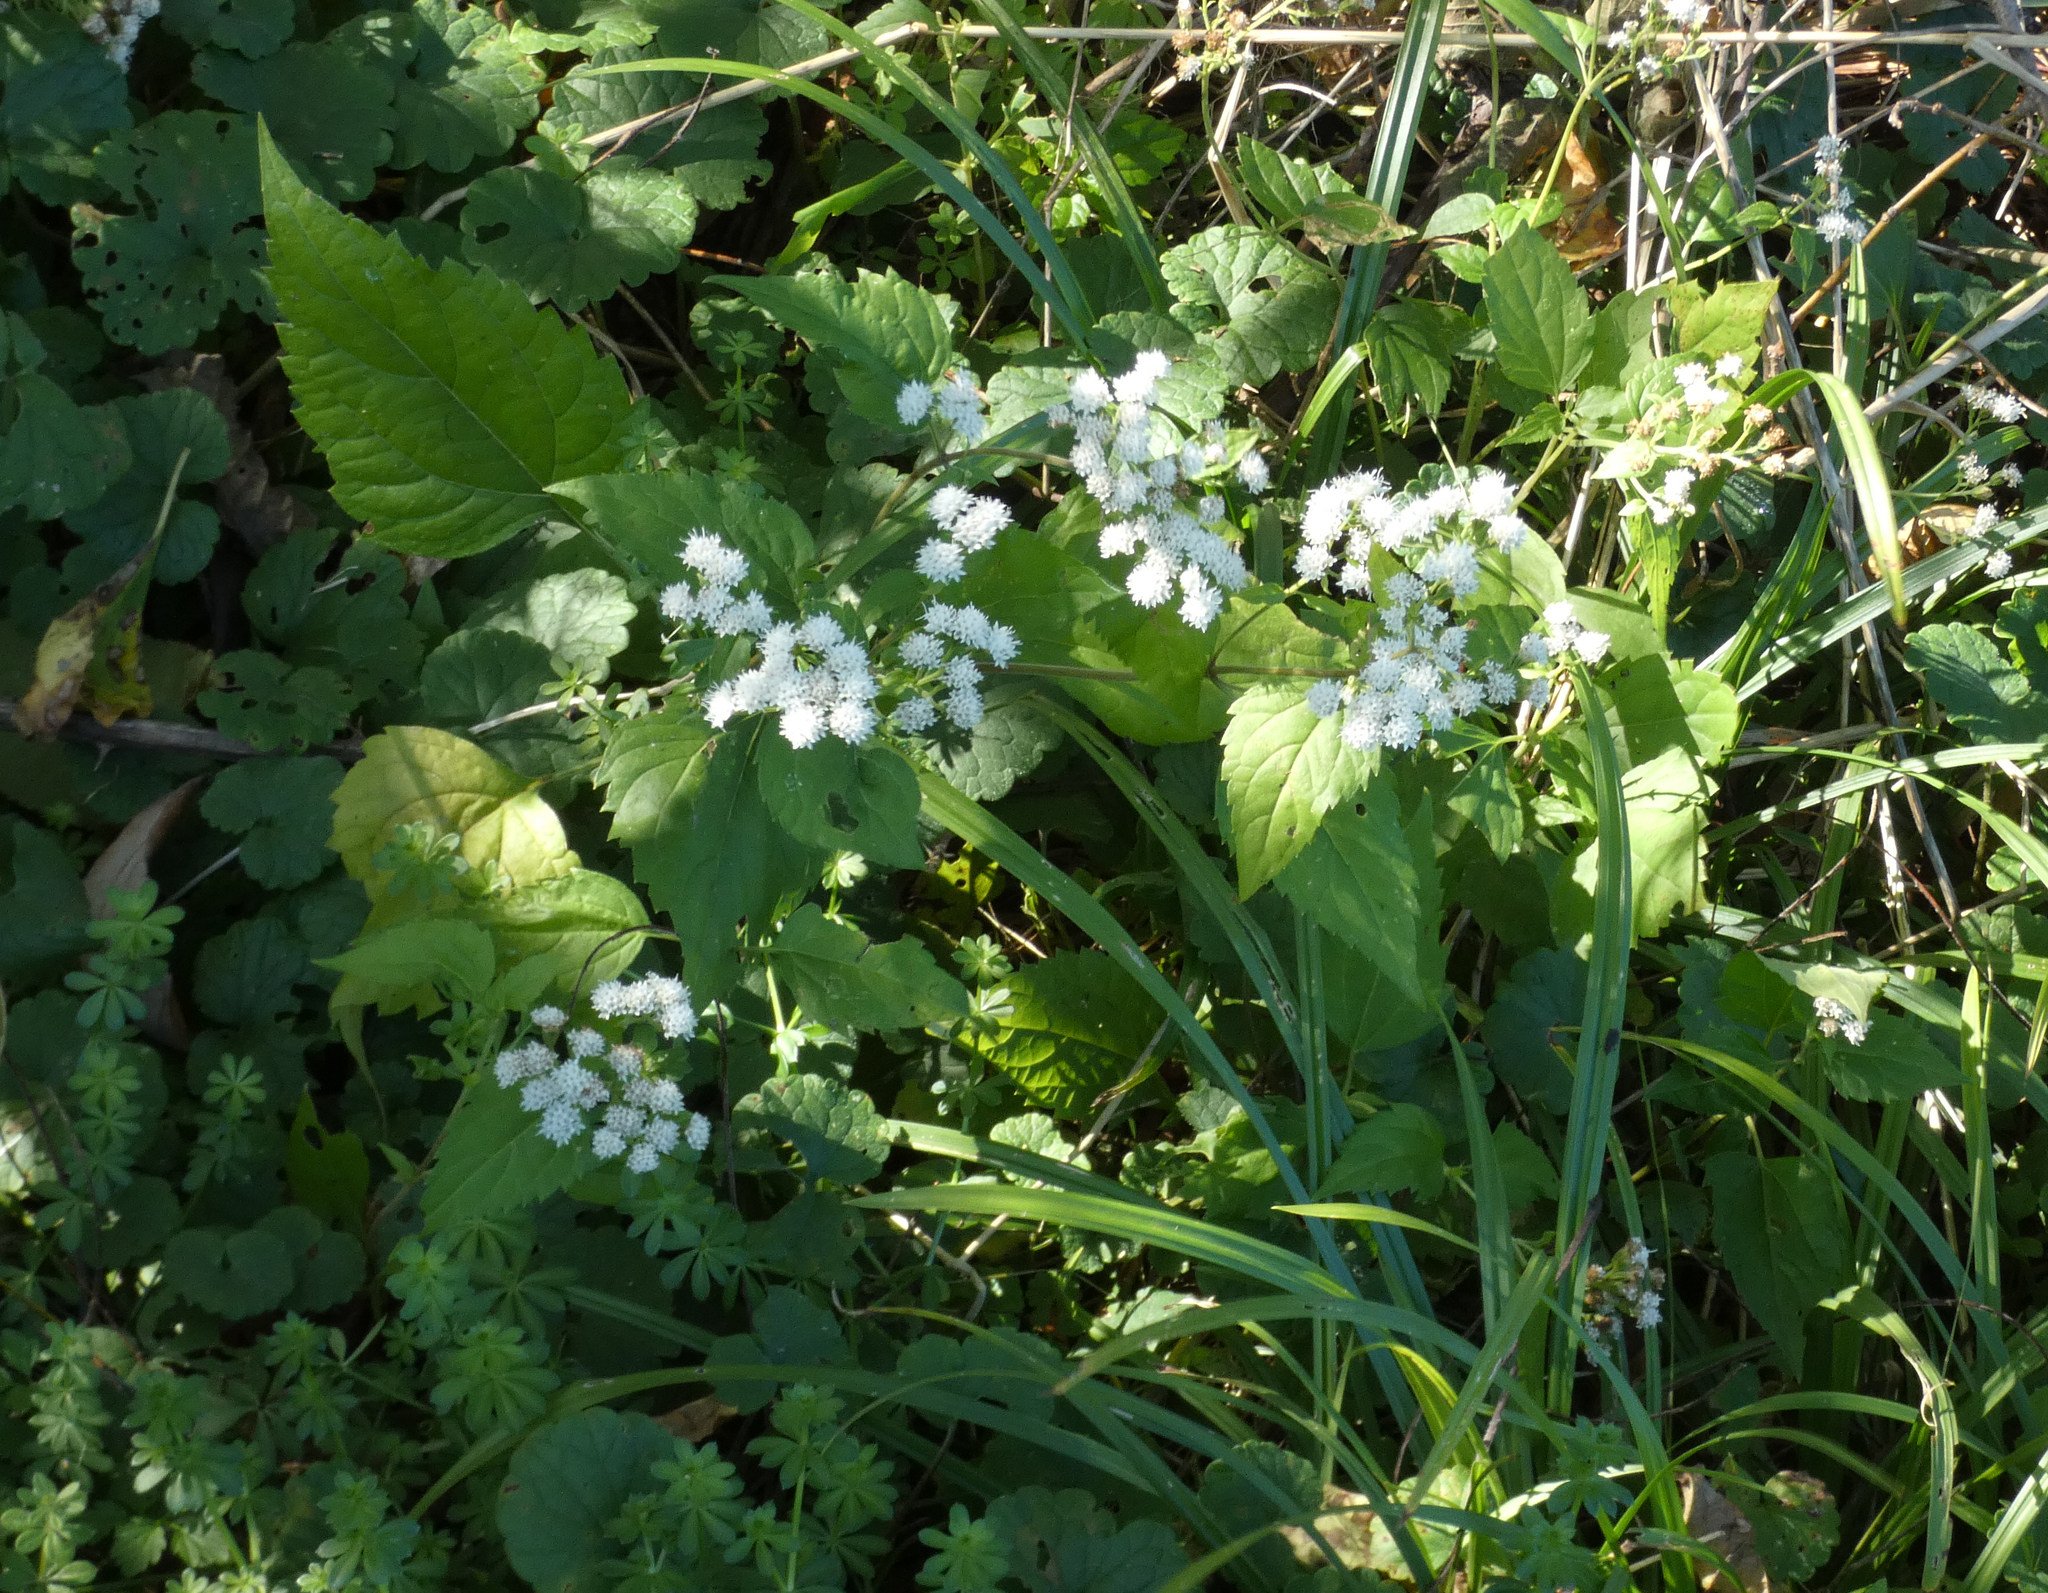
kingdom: Plantae
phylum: Tracheophyta
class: Magnoliopsida
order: Asterales
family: Asteraceae
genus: Ageratina
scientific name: Ageratina altissima
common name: White snakeroot
